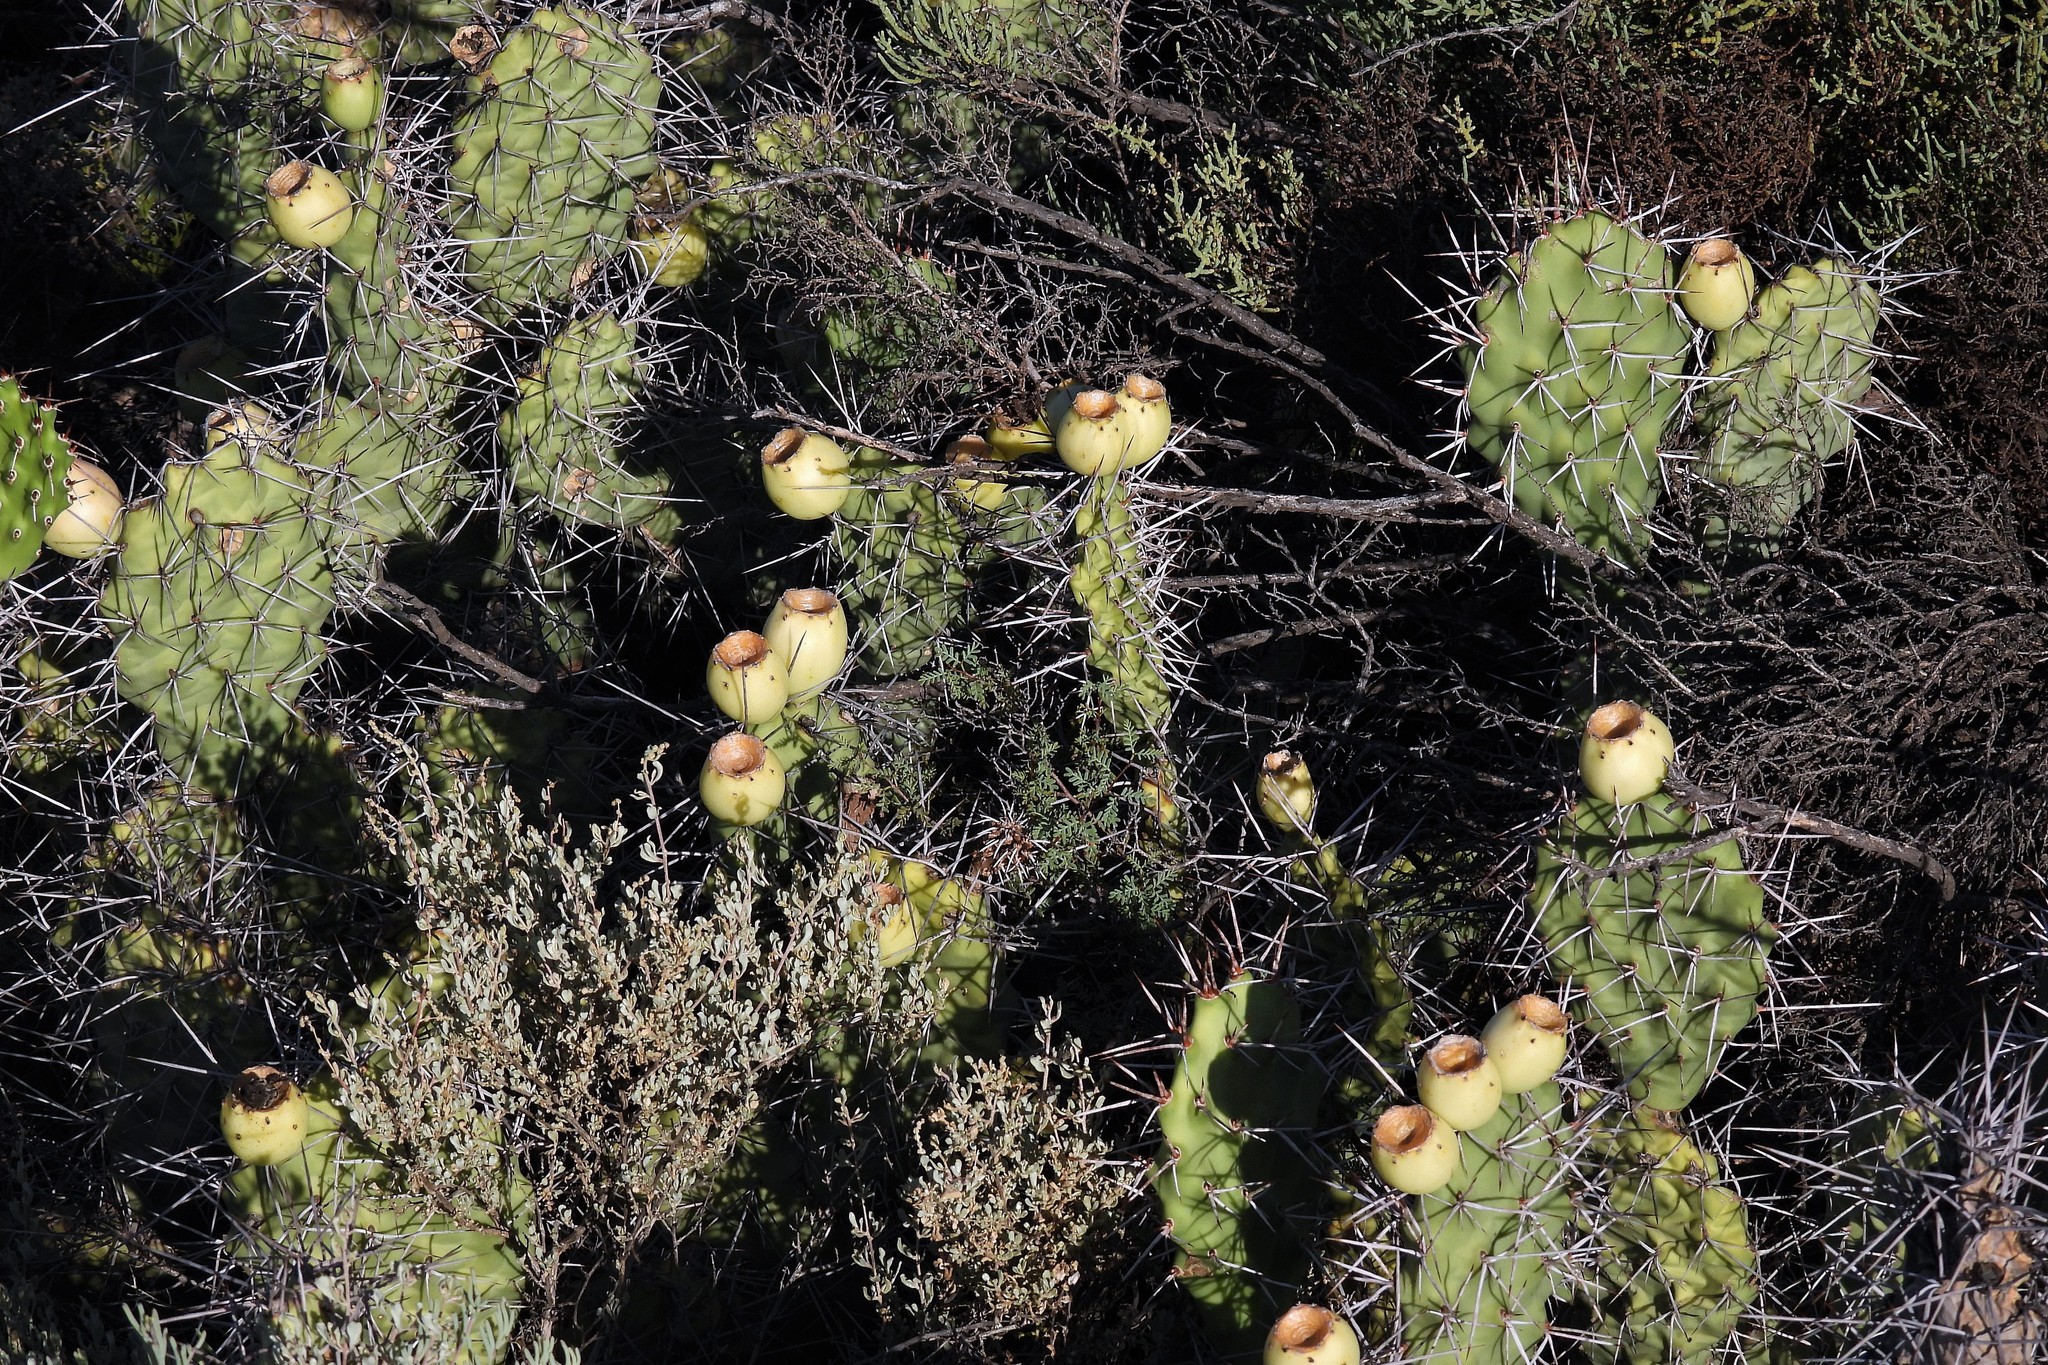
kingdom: Plantae
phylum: Tracheophyta
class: Magnoliopsida
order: Caryophyllales
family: Cactaceae
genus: Opuntia
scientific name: Opuntia sulphurea
